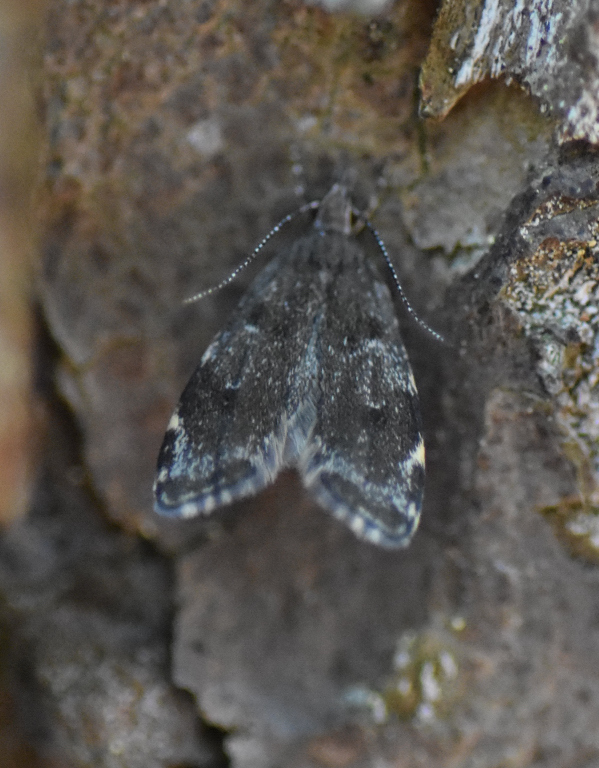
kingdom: Animalia
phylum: Arthropoda
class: Insecta
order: Lepidoptera
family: Oecophoridae
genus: Eido
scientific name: Eido trimaculella
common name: Three-spotted concealer
